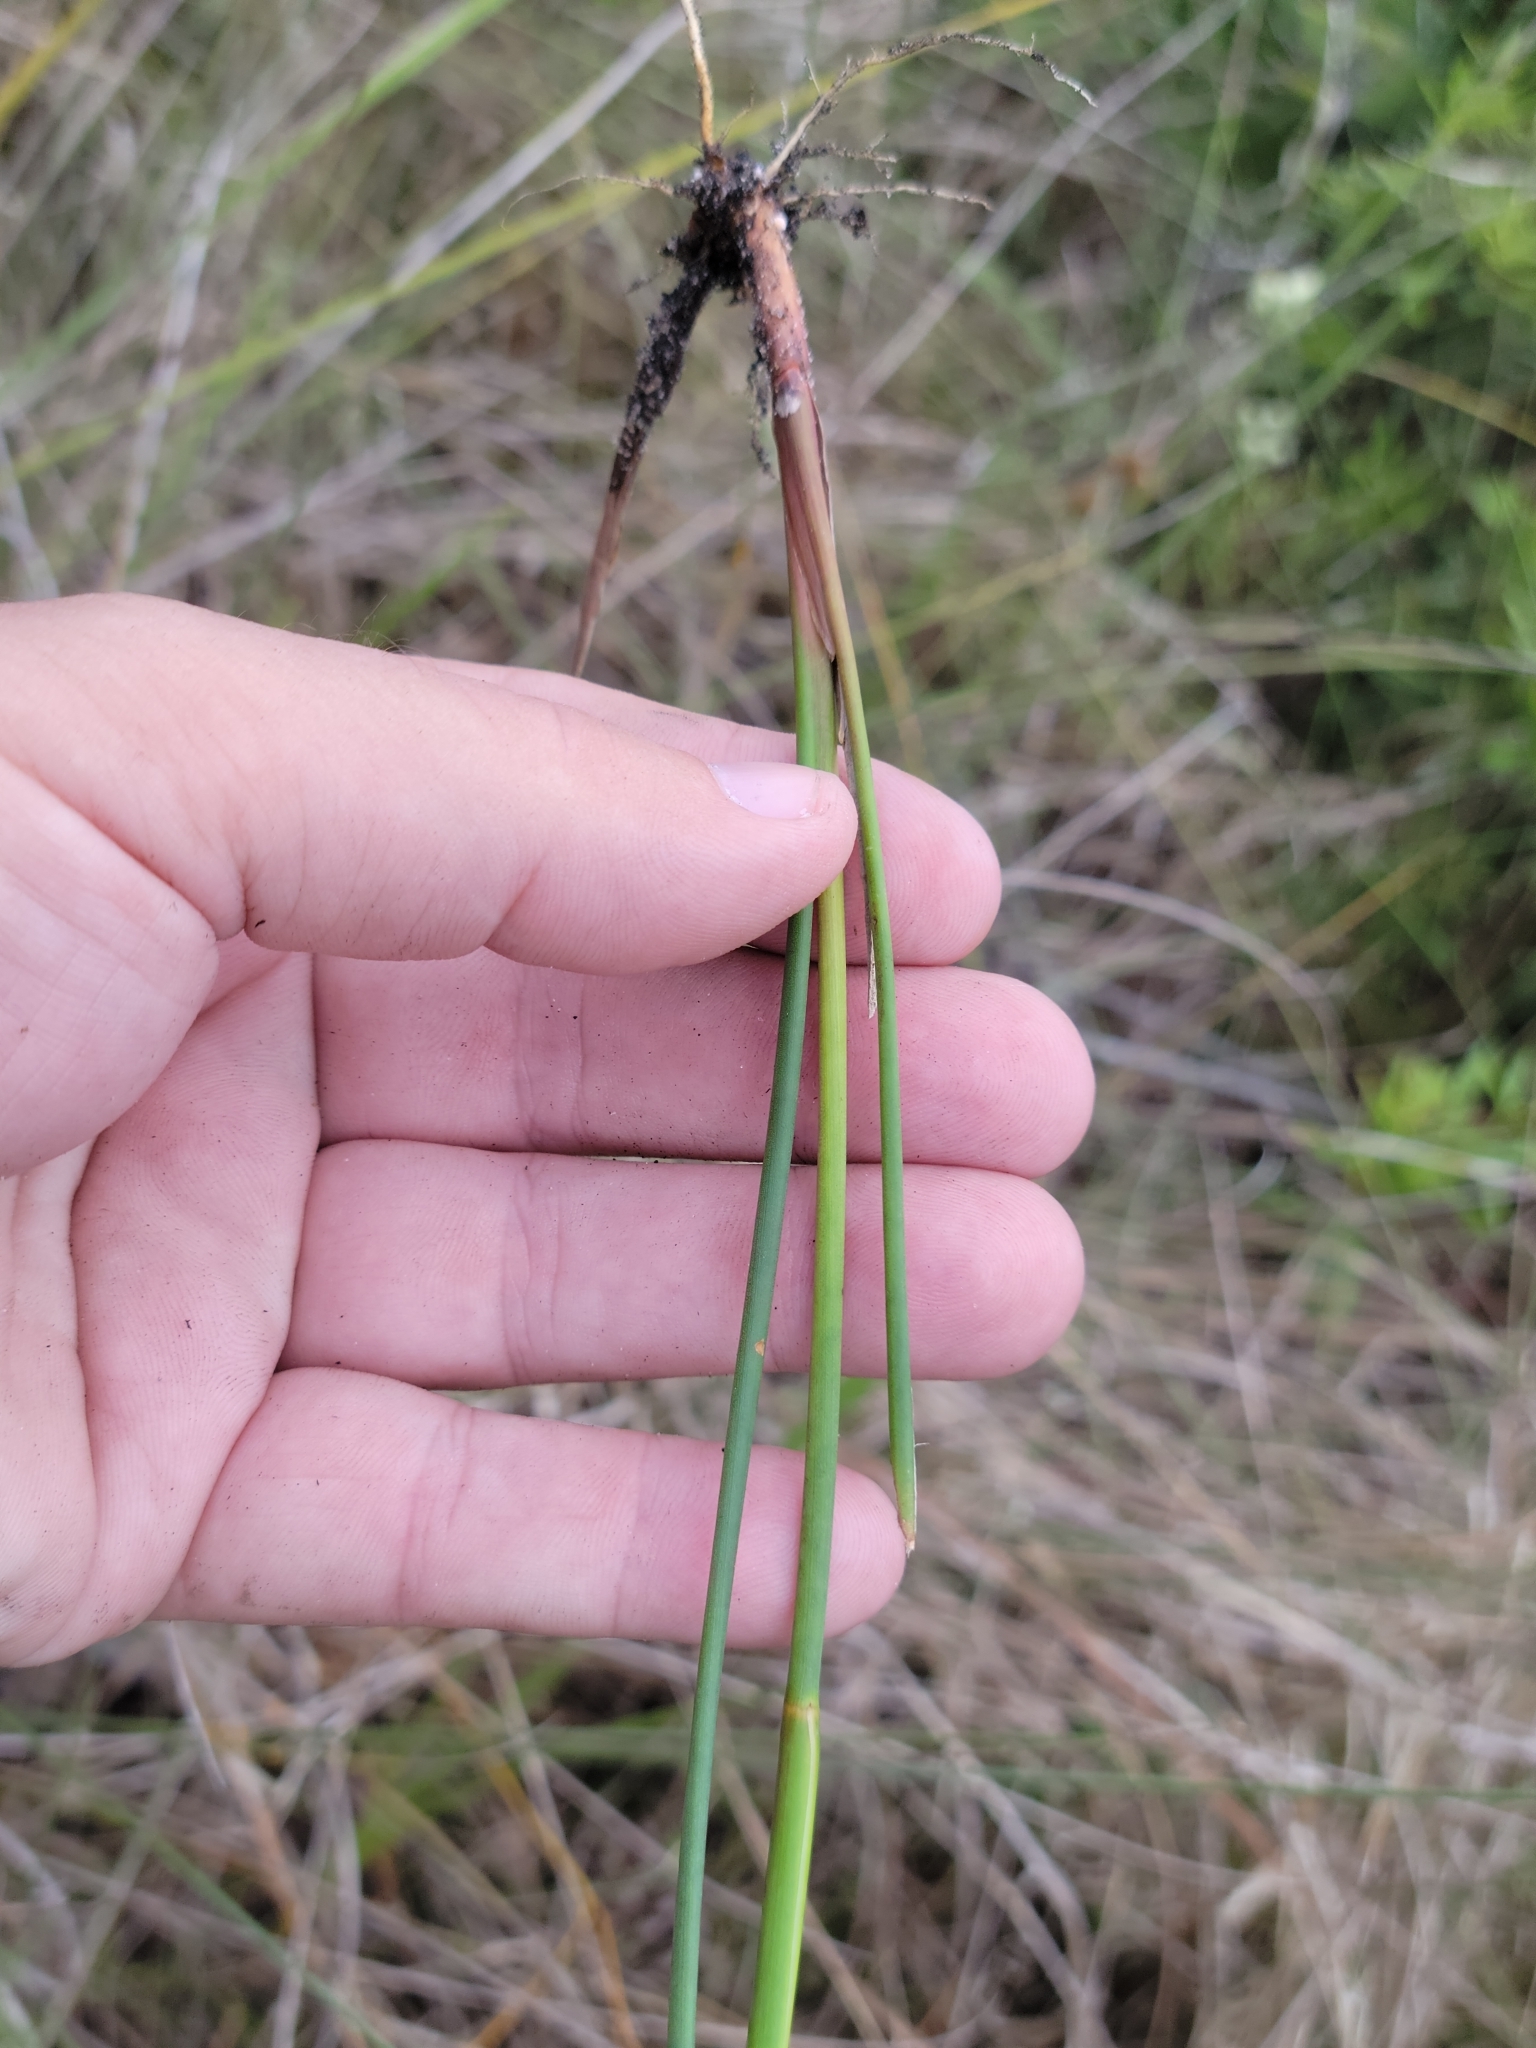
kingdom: Plantae
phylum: Tracheophyta
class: Liliopsida
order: Poales
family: Juncaceae
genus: Juncus
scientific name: Juncus megacephalus
